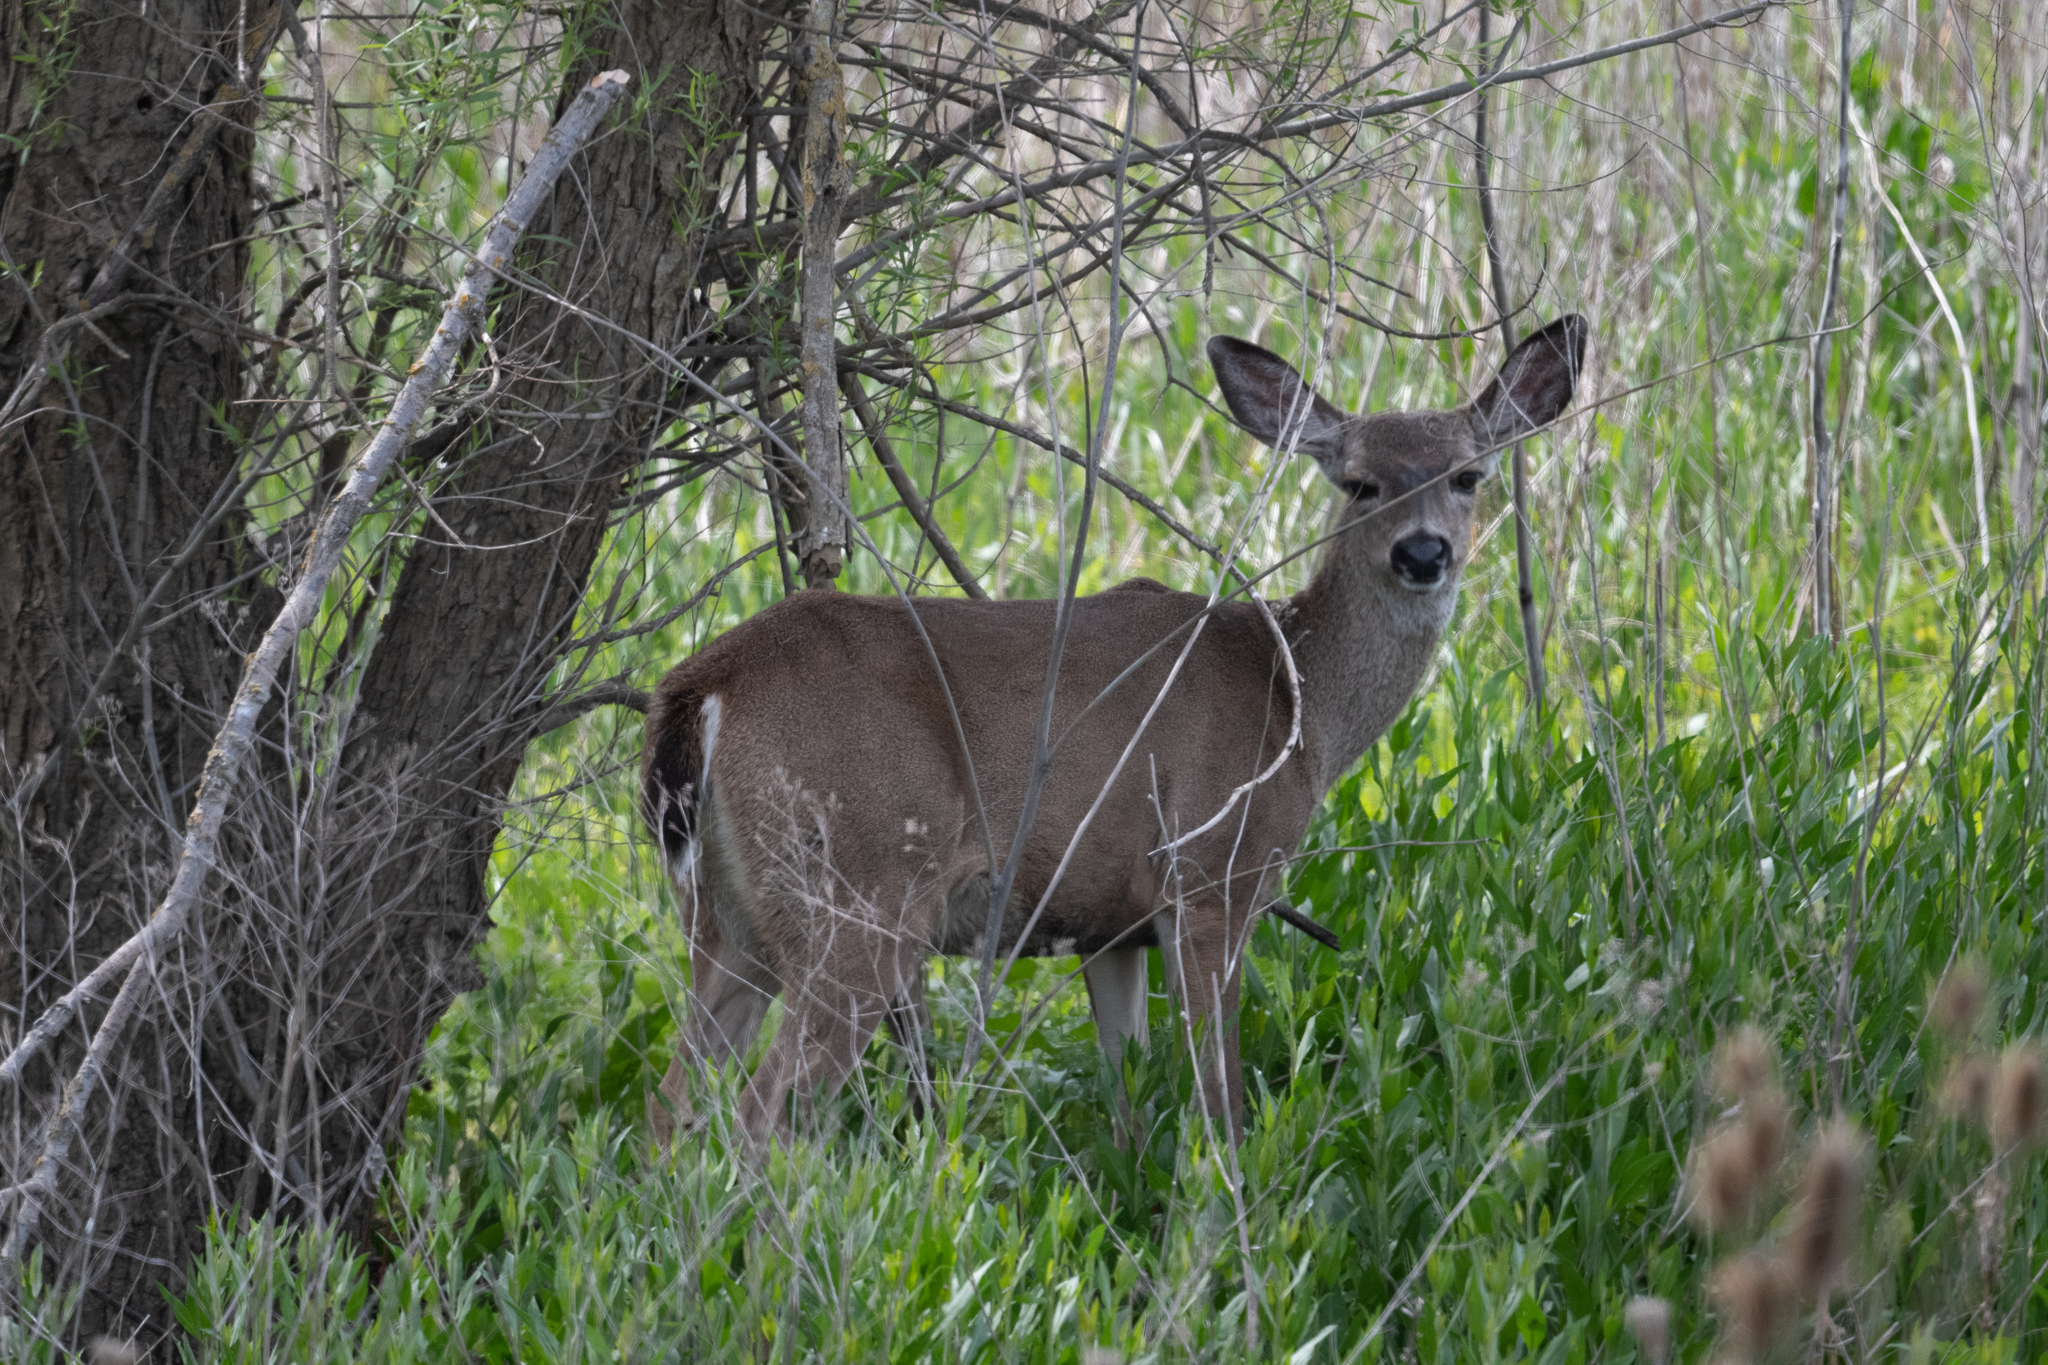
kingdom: Animalia
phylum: Chordata
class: Mammalia
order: Artiodactyla
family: Cervidae
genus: Odocoileus
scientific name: Odocoileus hemionus
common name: Mule deer
